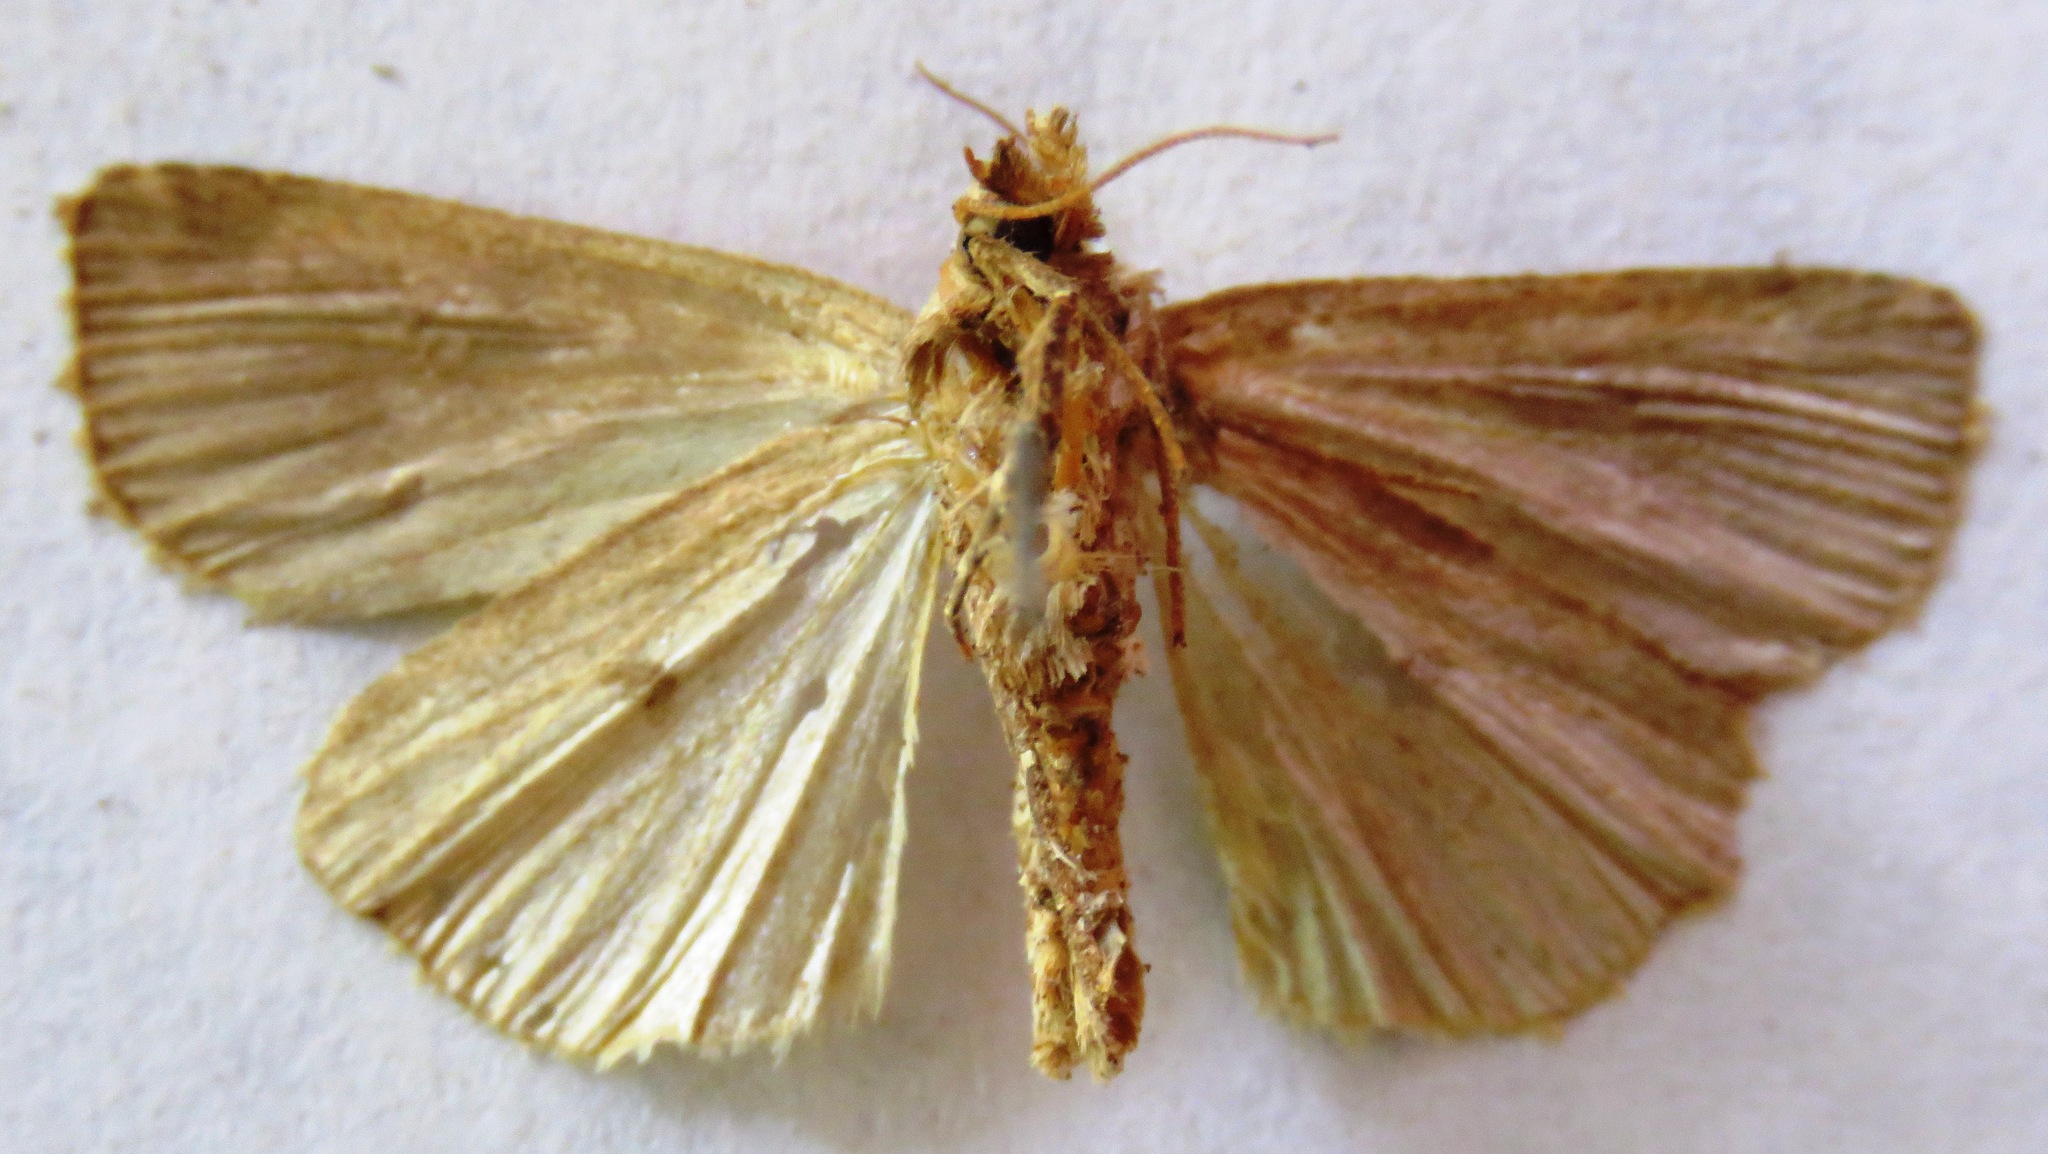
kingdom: Animalia
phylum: Arthropoda
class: Insecta
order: Lepidoptera
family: Noctuidae
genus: Diarsia
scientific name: Diarsia rubi
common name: Small square-spot
